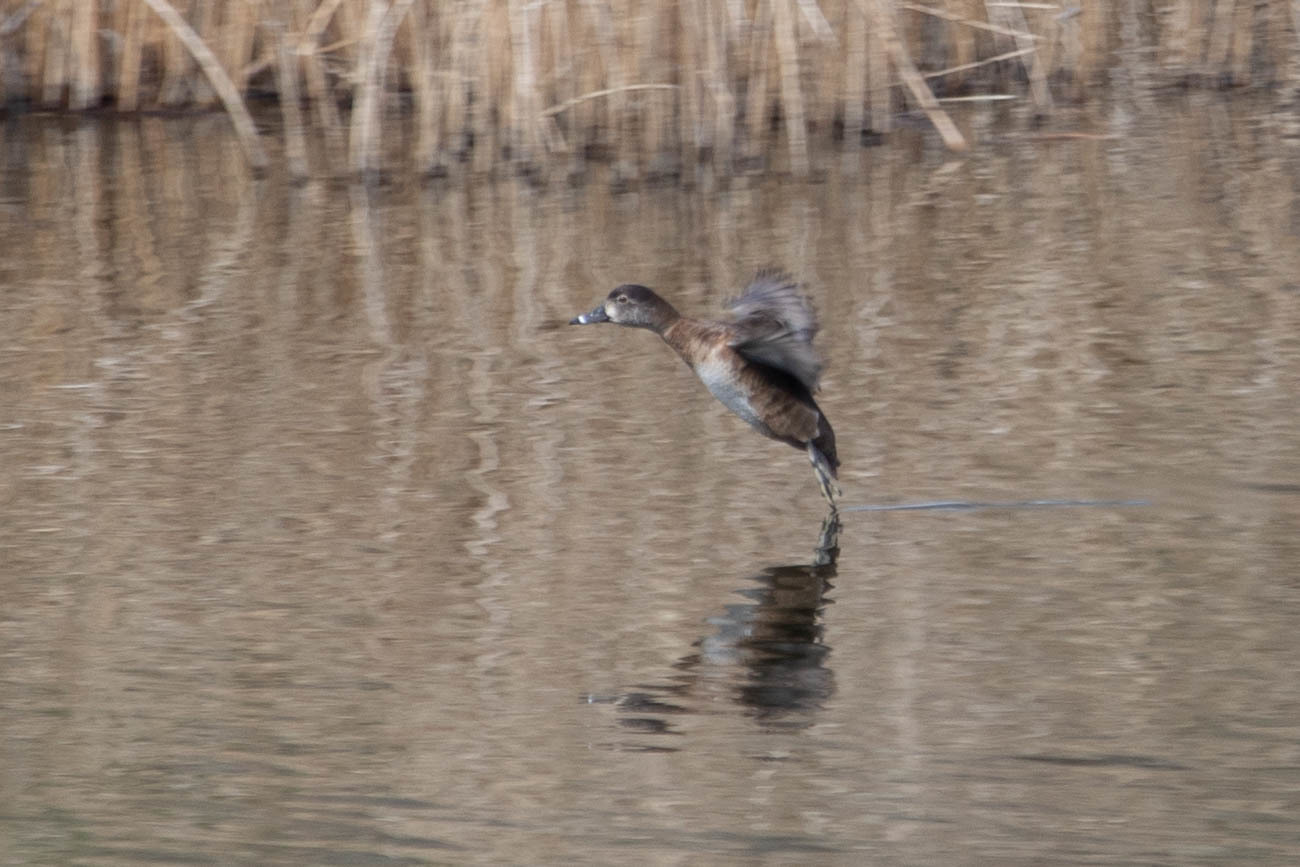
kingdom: Animalia
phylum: Chordata
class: Aves
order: Anseriformes
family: Anatidae
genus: Aythya
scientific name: Aythya collaris
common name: Ring-necked duck
